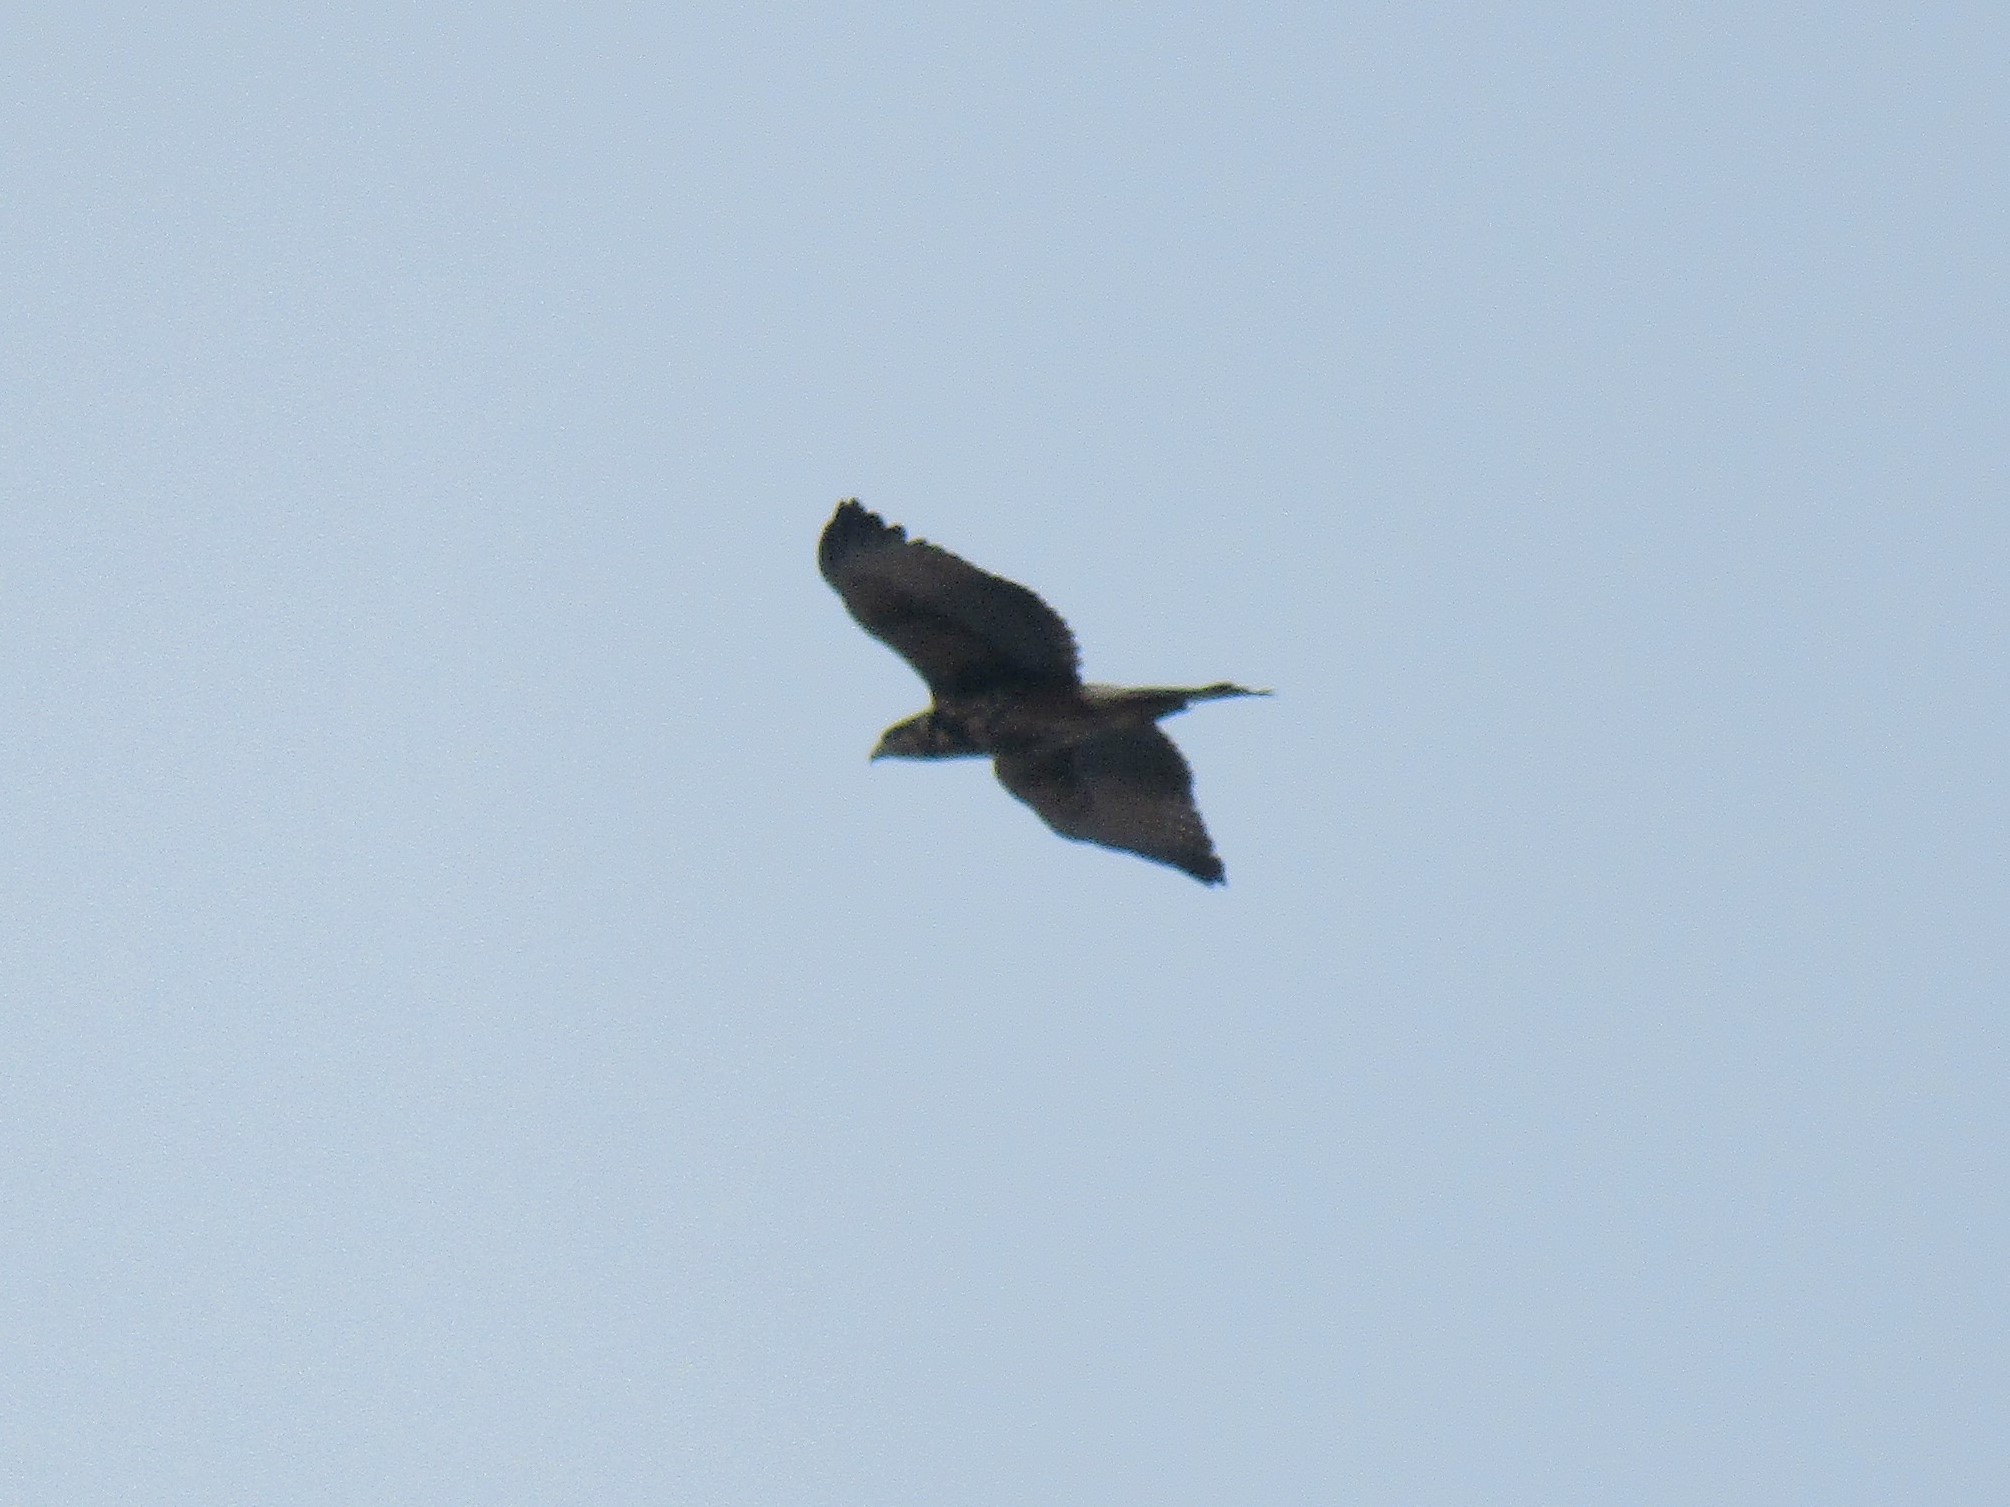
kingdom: Animalia
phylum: Chordata
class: Aves
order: Accipitriformes
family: Accipitridae
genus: Parabuteo
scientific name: Parabuteo unicinctus
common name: Harris's hawk
